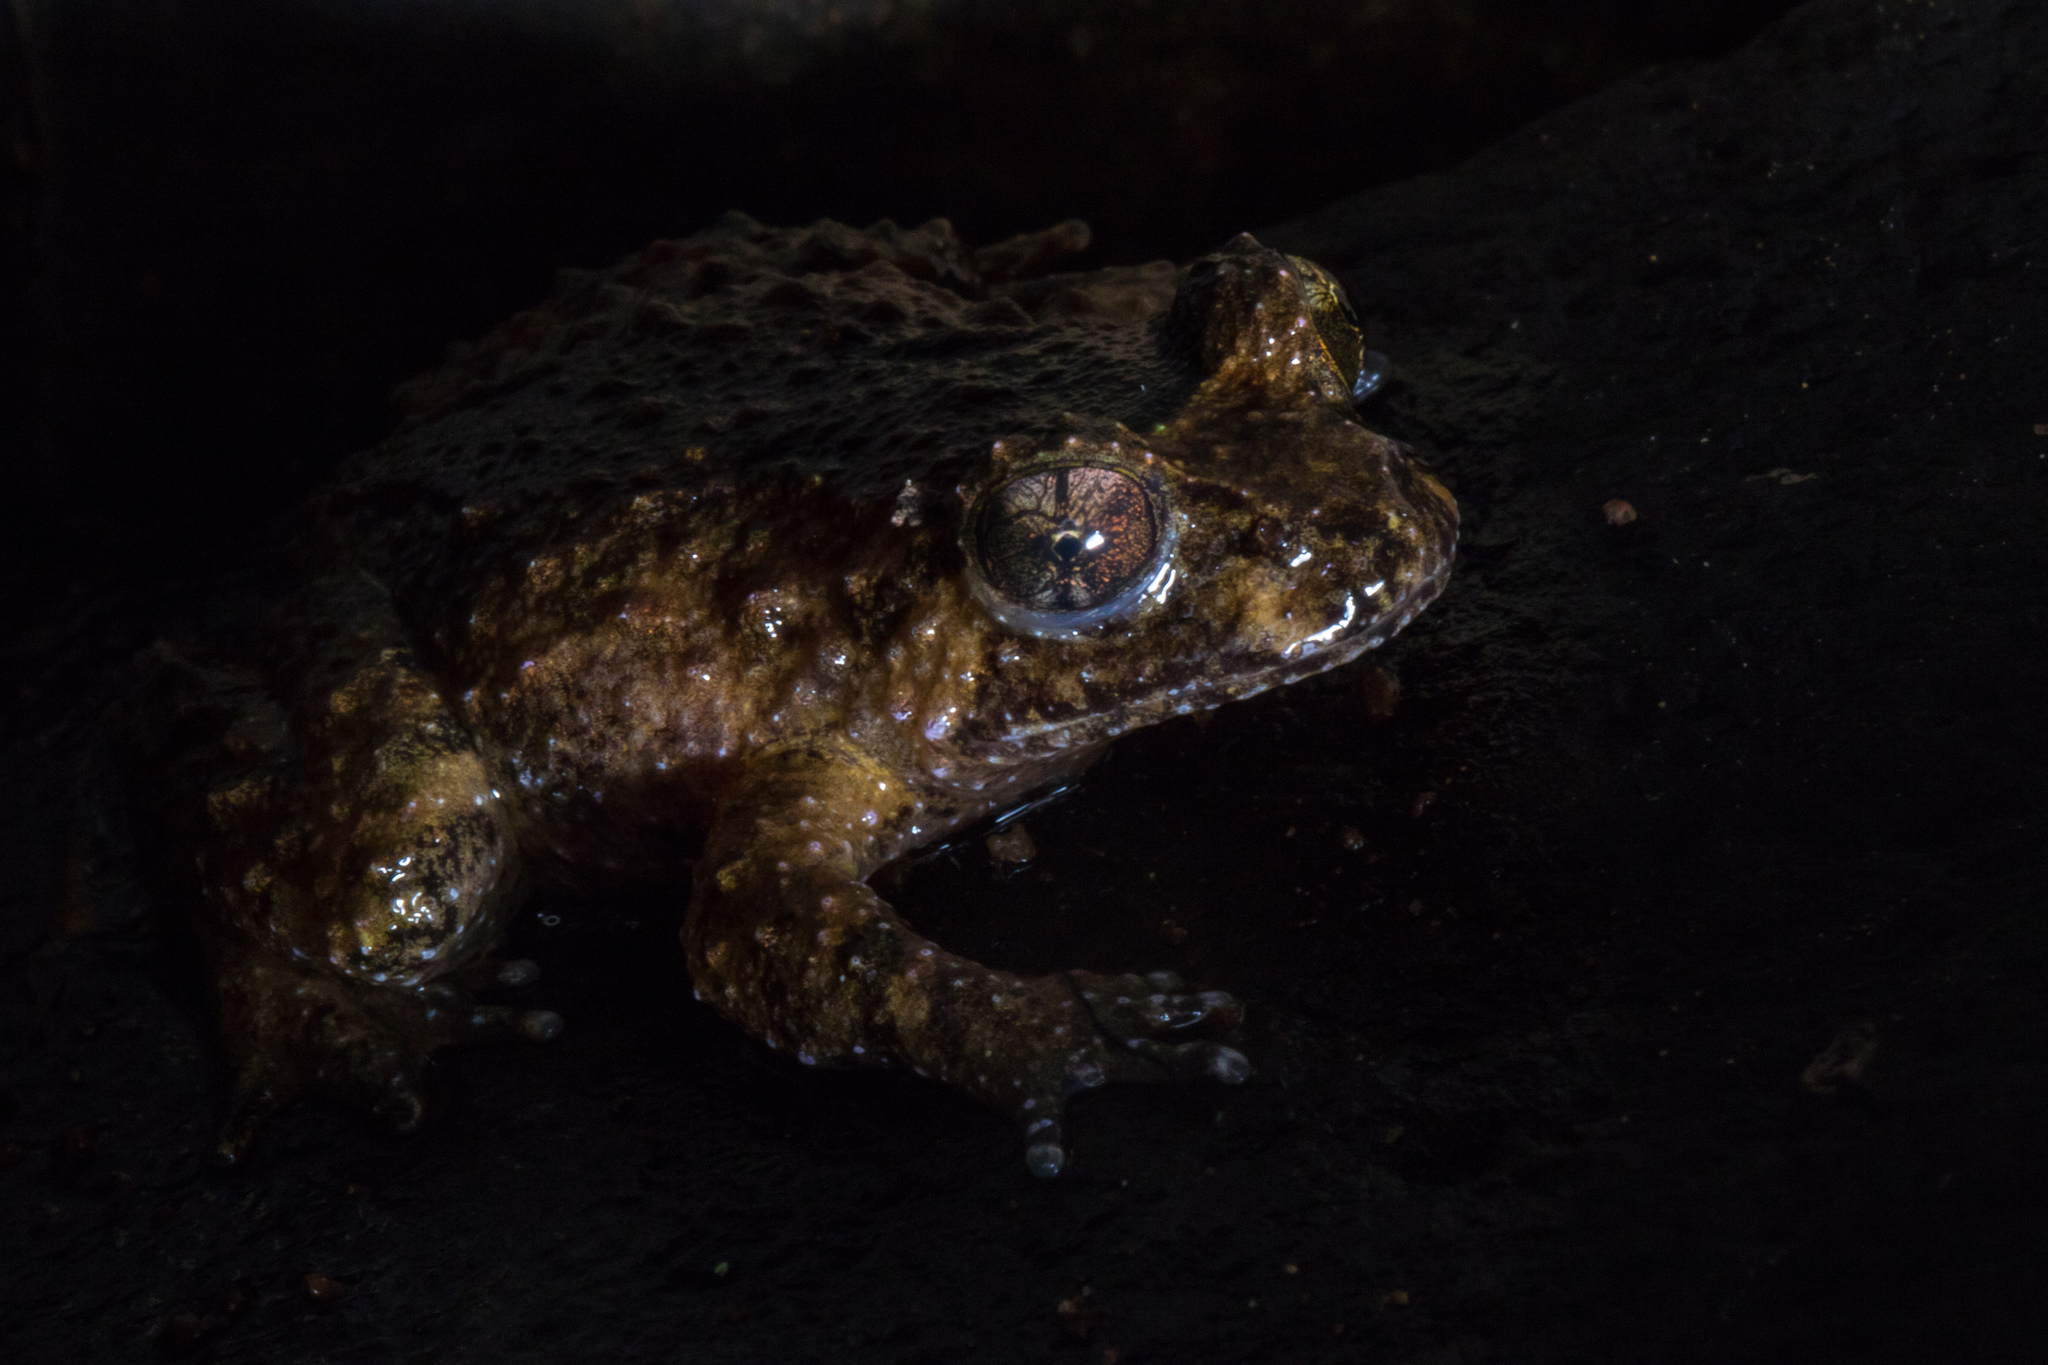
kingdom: Animalia
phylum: Chordata
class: Amphibia
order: Anura
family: Leiopelmatidae
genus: Leiopelma
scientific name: Leiopelma hochstetteri
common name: Hochstetters new zealand frog
